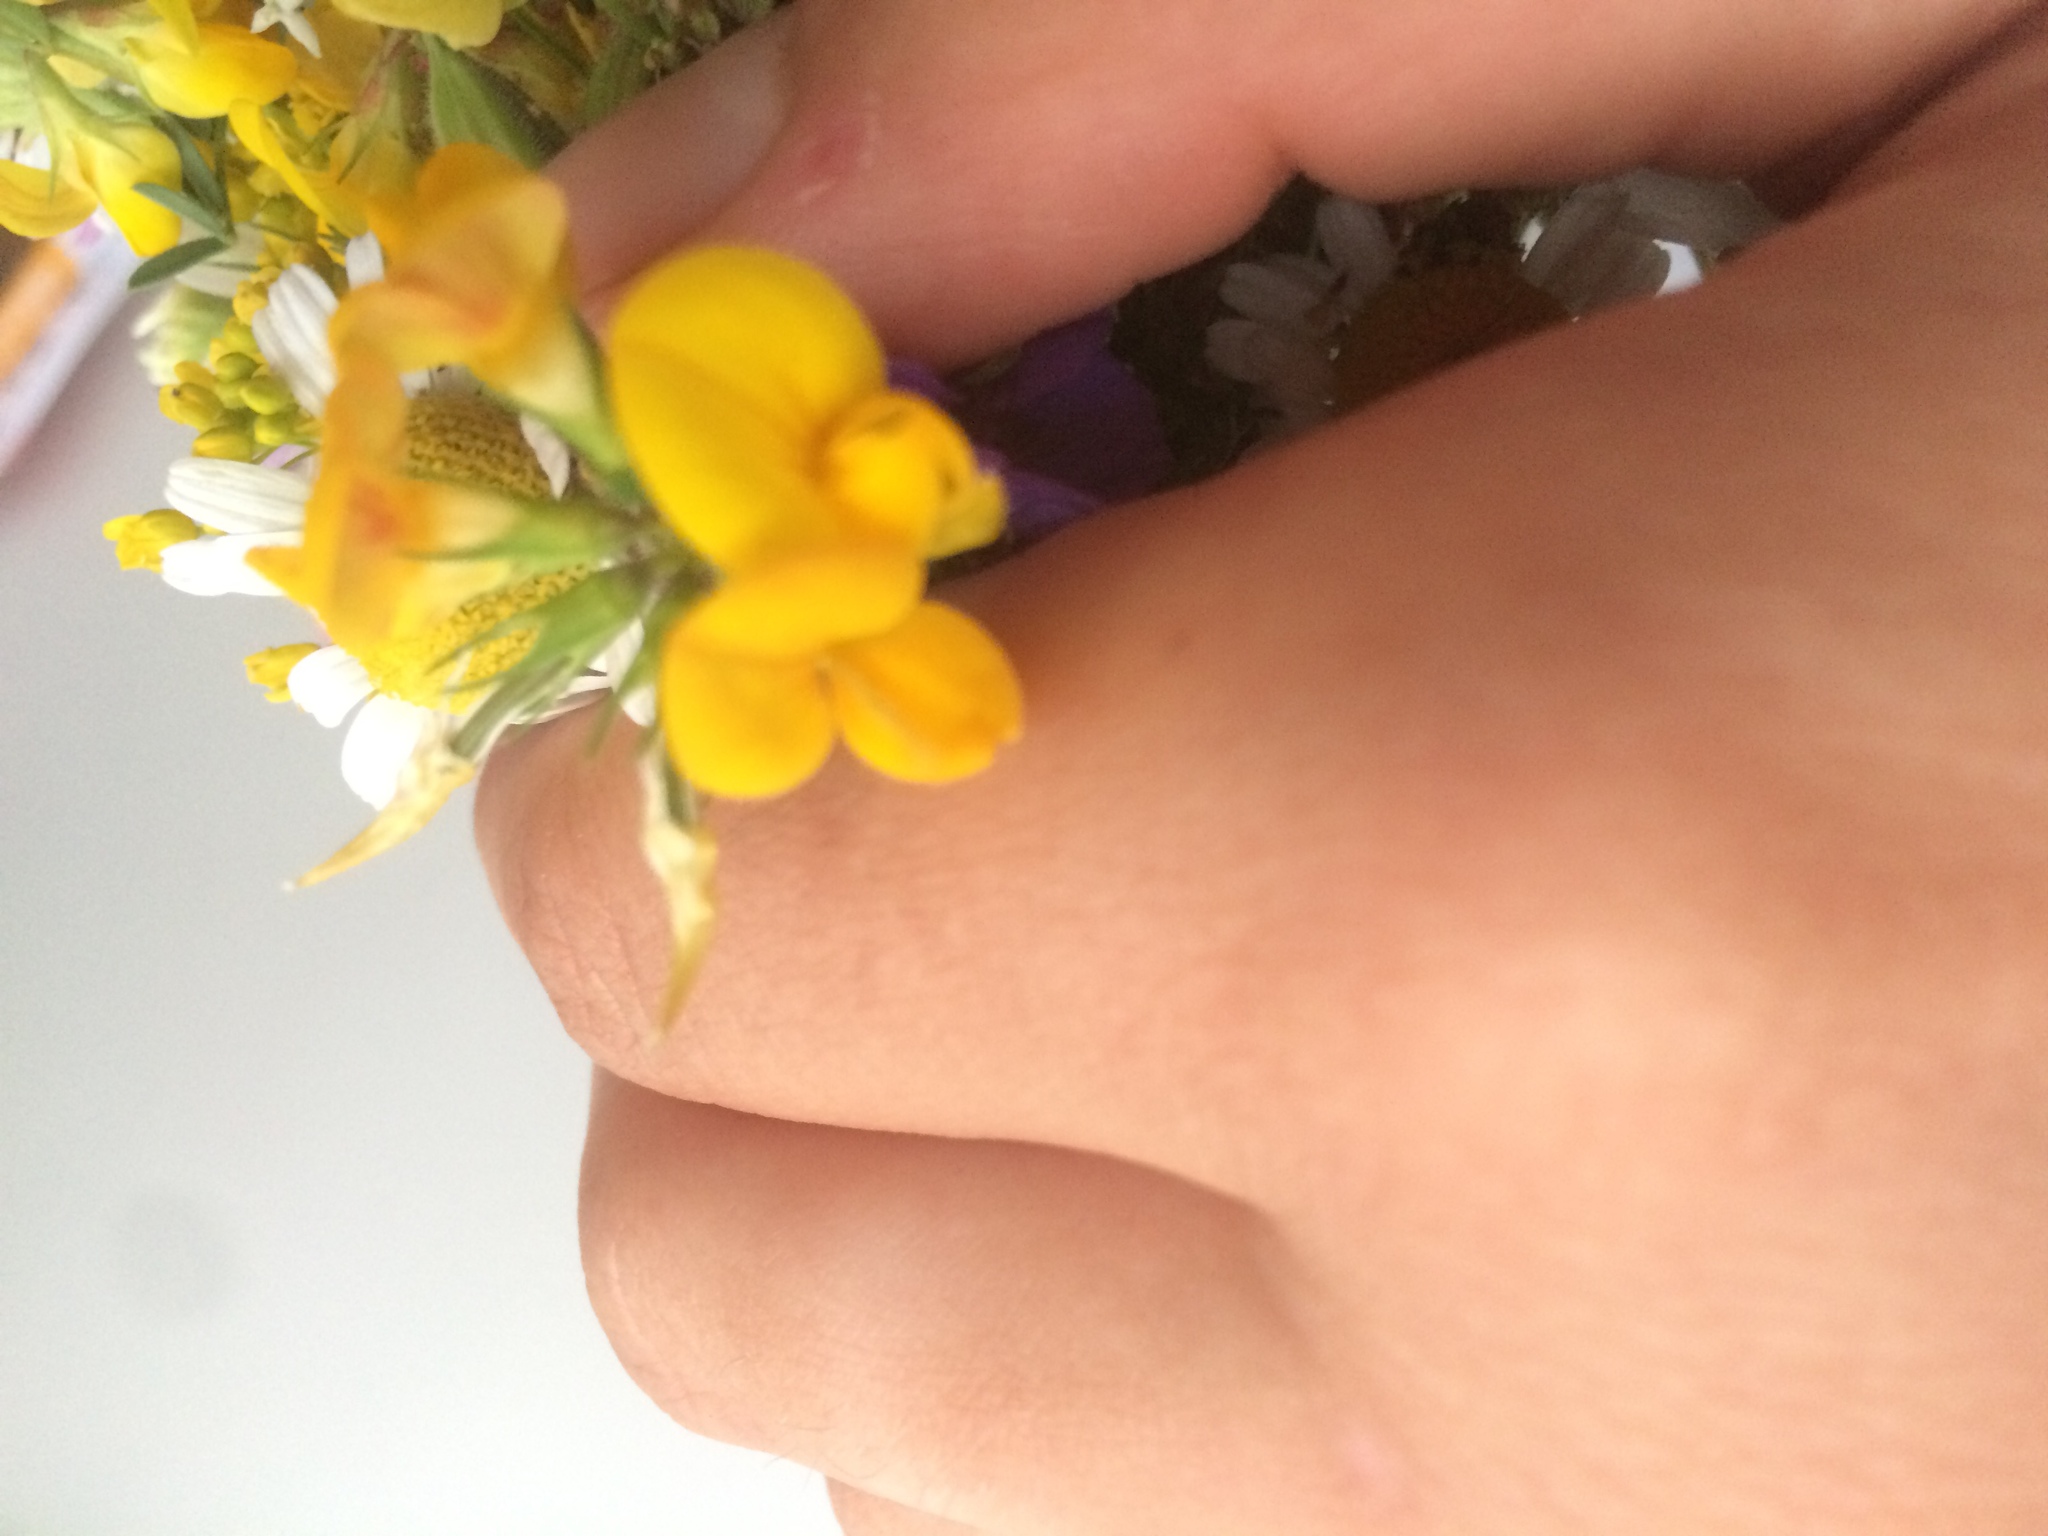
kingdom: Plantae
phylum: Tracheophyta
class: Magnoliopsida
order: Fabales
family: Fabaceae
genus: Lotus
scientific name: Lotus corniculatus
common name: Common bird's-foot-trefoil
